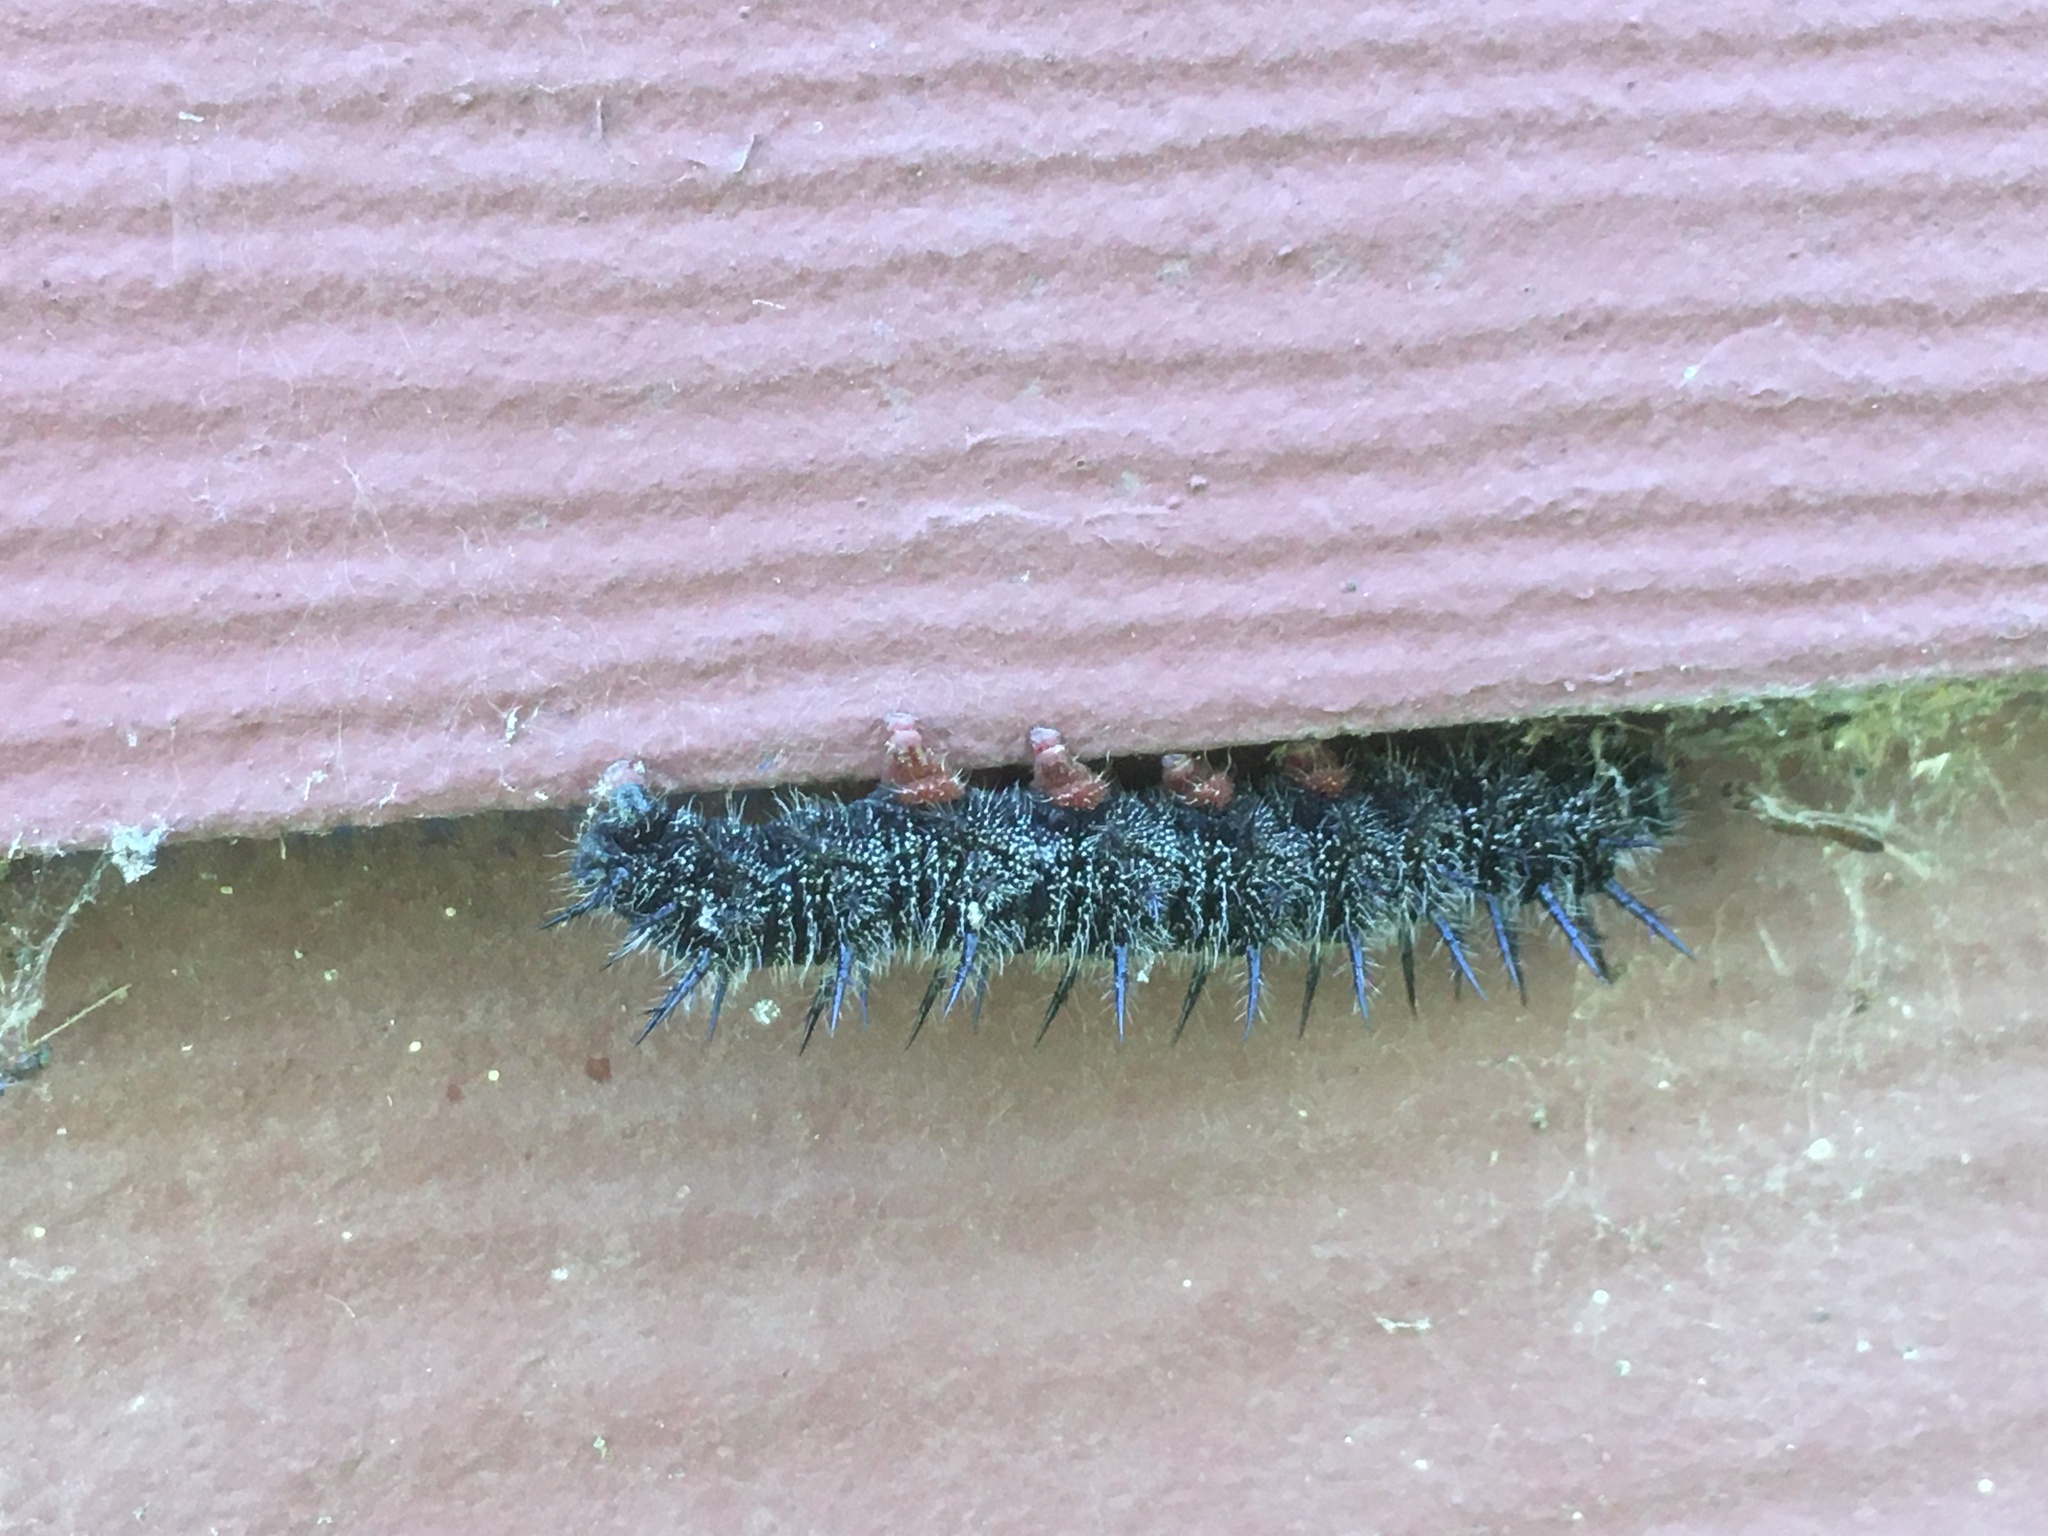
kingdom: Animalia
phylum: Arthropoda
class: Insecta
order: Lepidoptera
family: Nymphalidae
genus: Nymphalis
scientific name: Nymphalis antiopa
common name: Camberwell beauty
